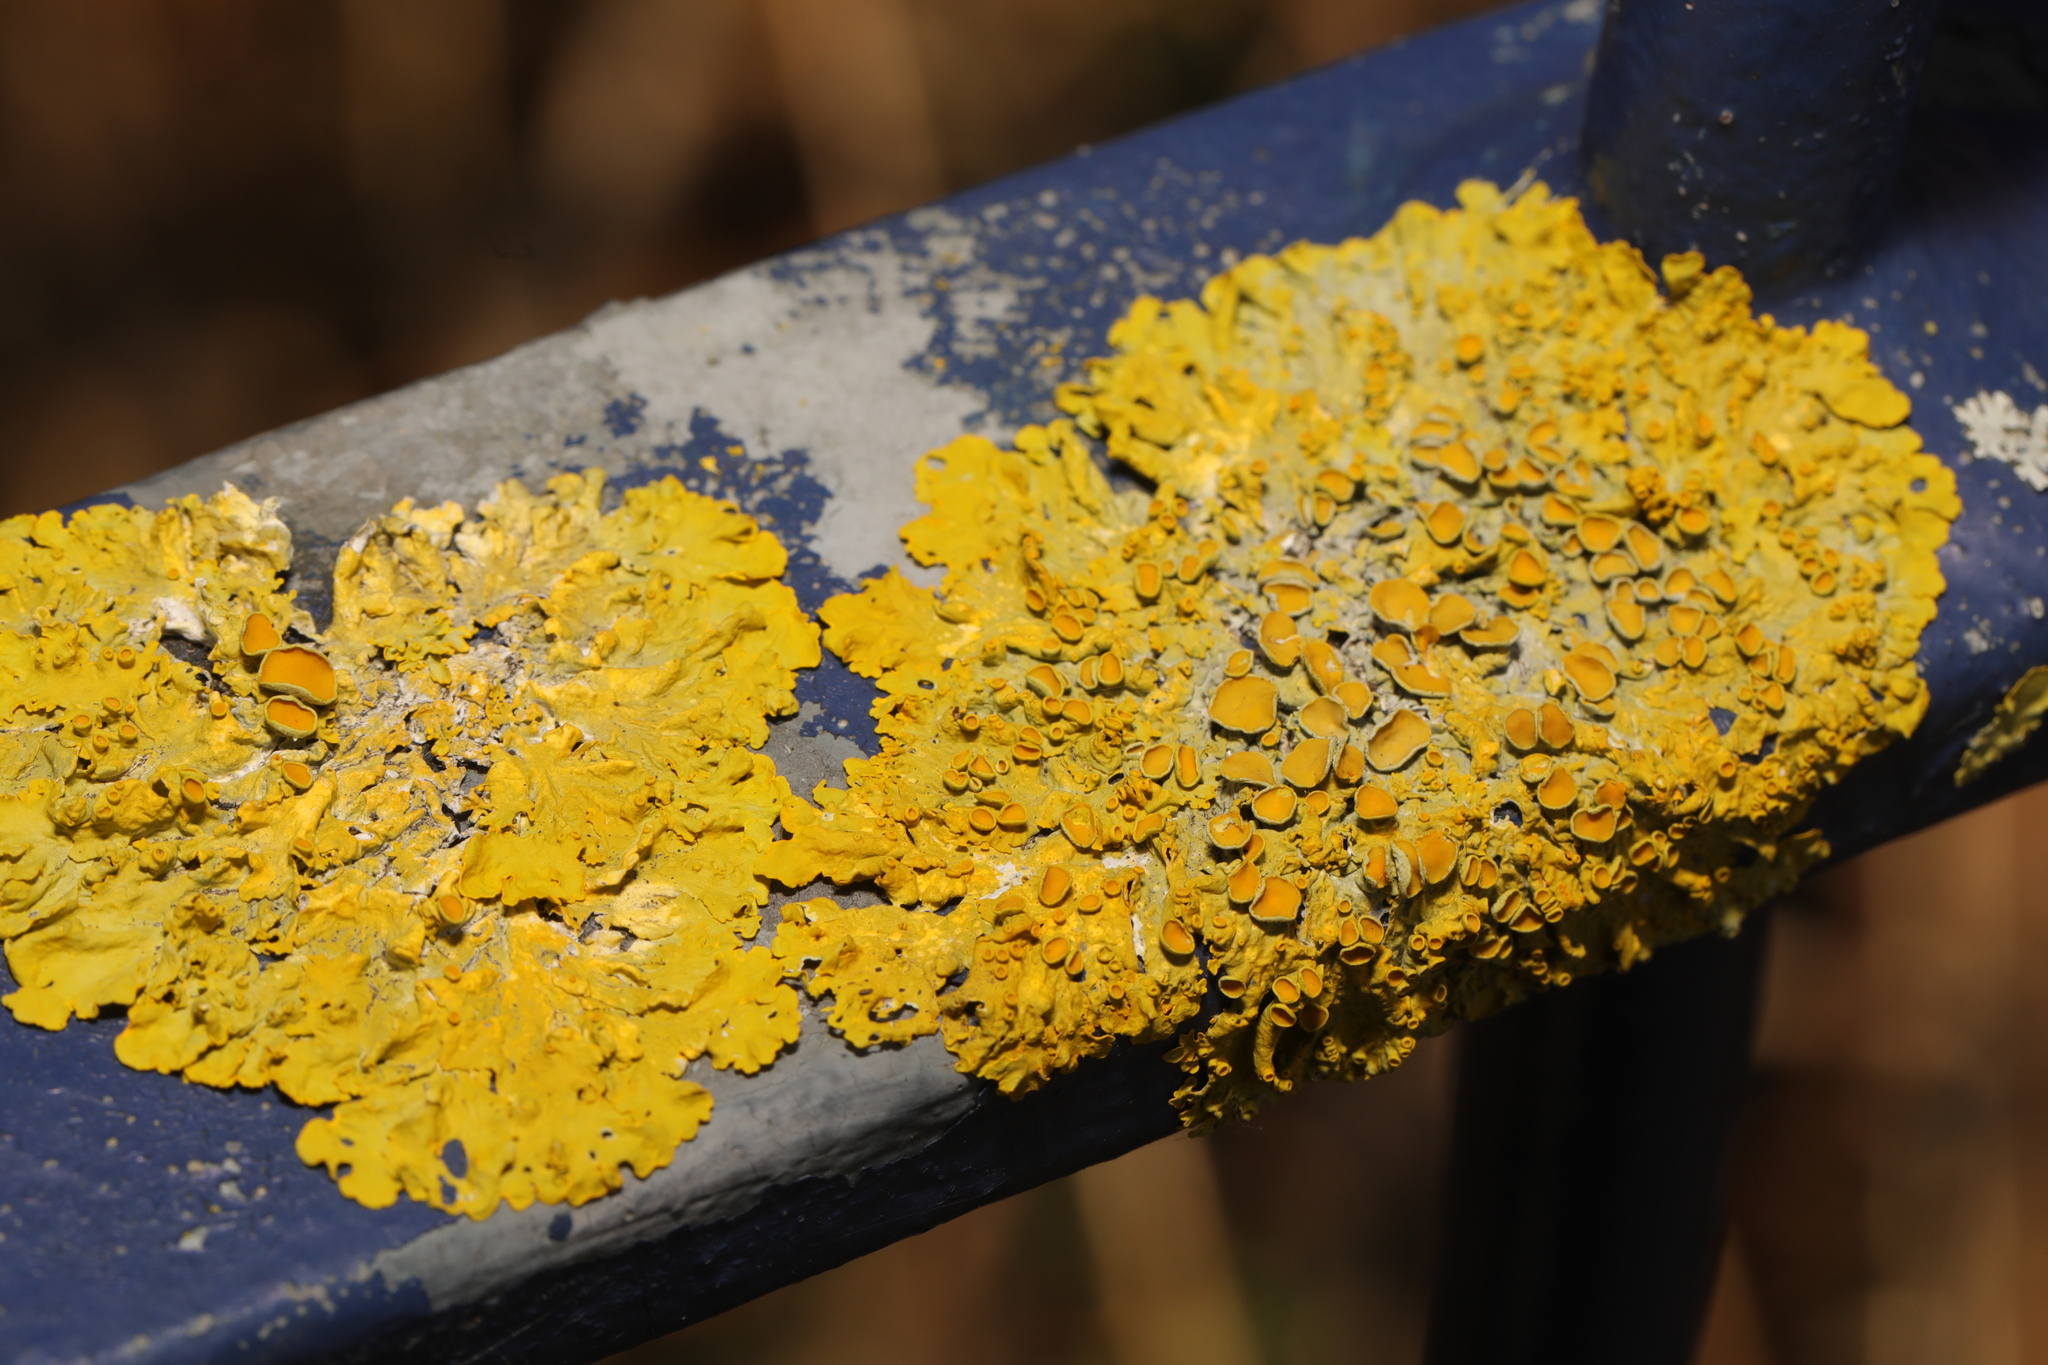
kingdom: Fungi
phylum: Ascomycota
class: Lecanoromycetes
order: Teloschistales
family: Teloschistaceae
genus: Xanthoria
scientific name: Xanthoria parietina
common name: Common orange lichen
